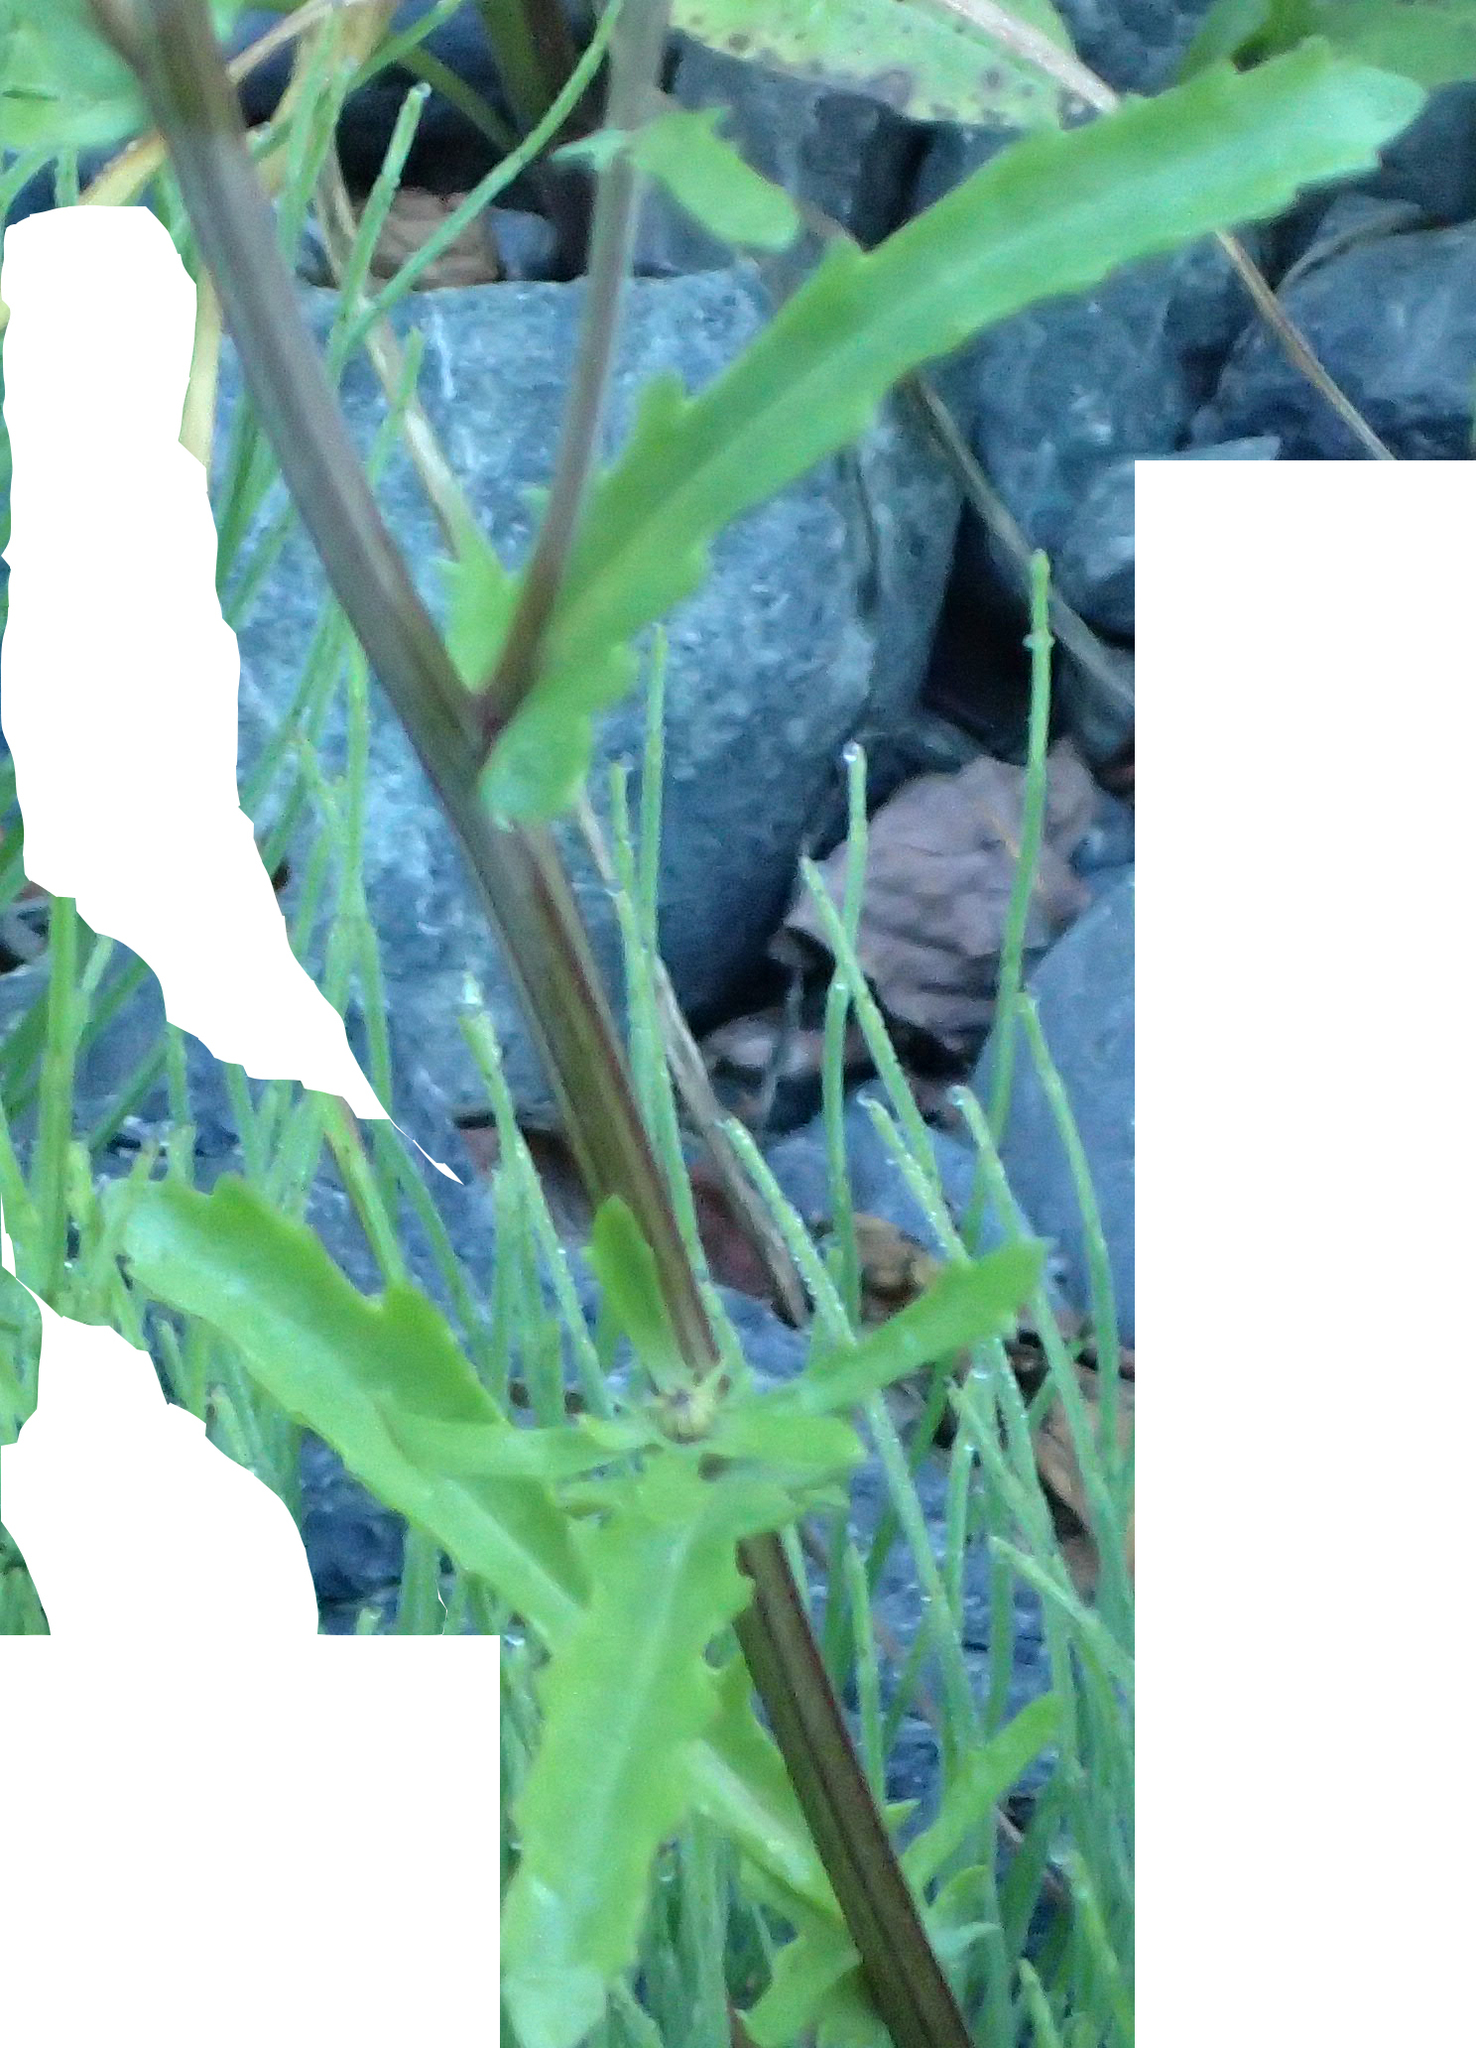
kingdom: Plantae
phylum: Tracheophyta
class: Magnoliopsida
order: Asterales
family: Asteraceae
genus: Leucanthemum
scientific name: Leucanthemum vulgare
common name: Oxeye daisy
